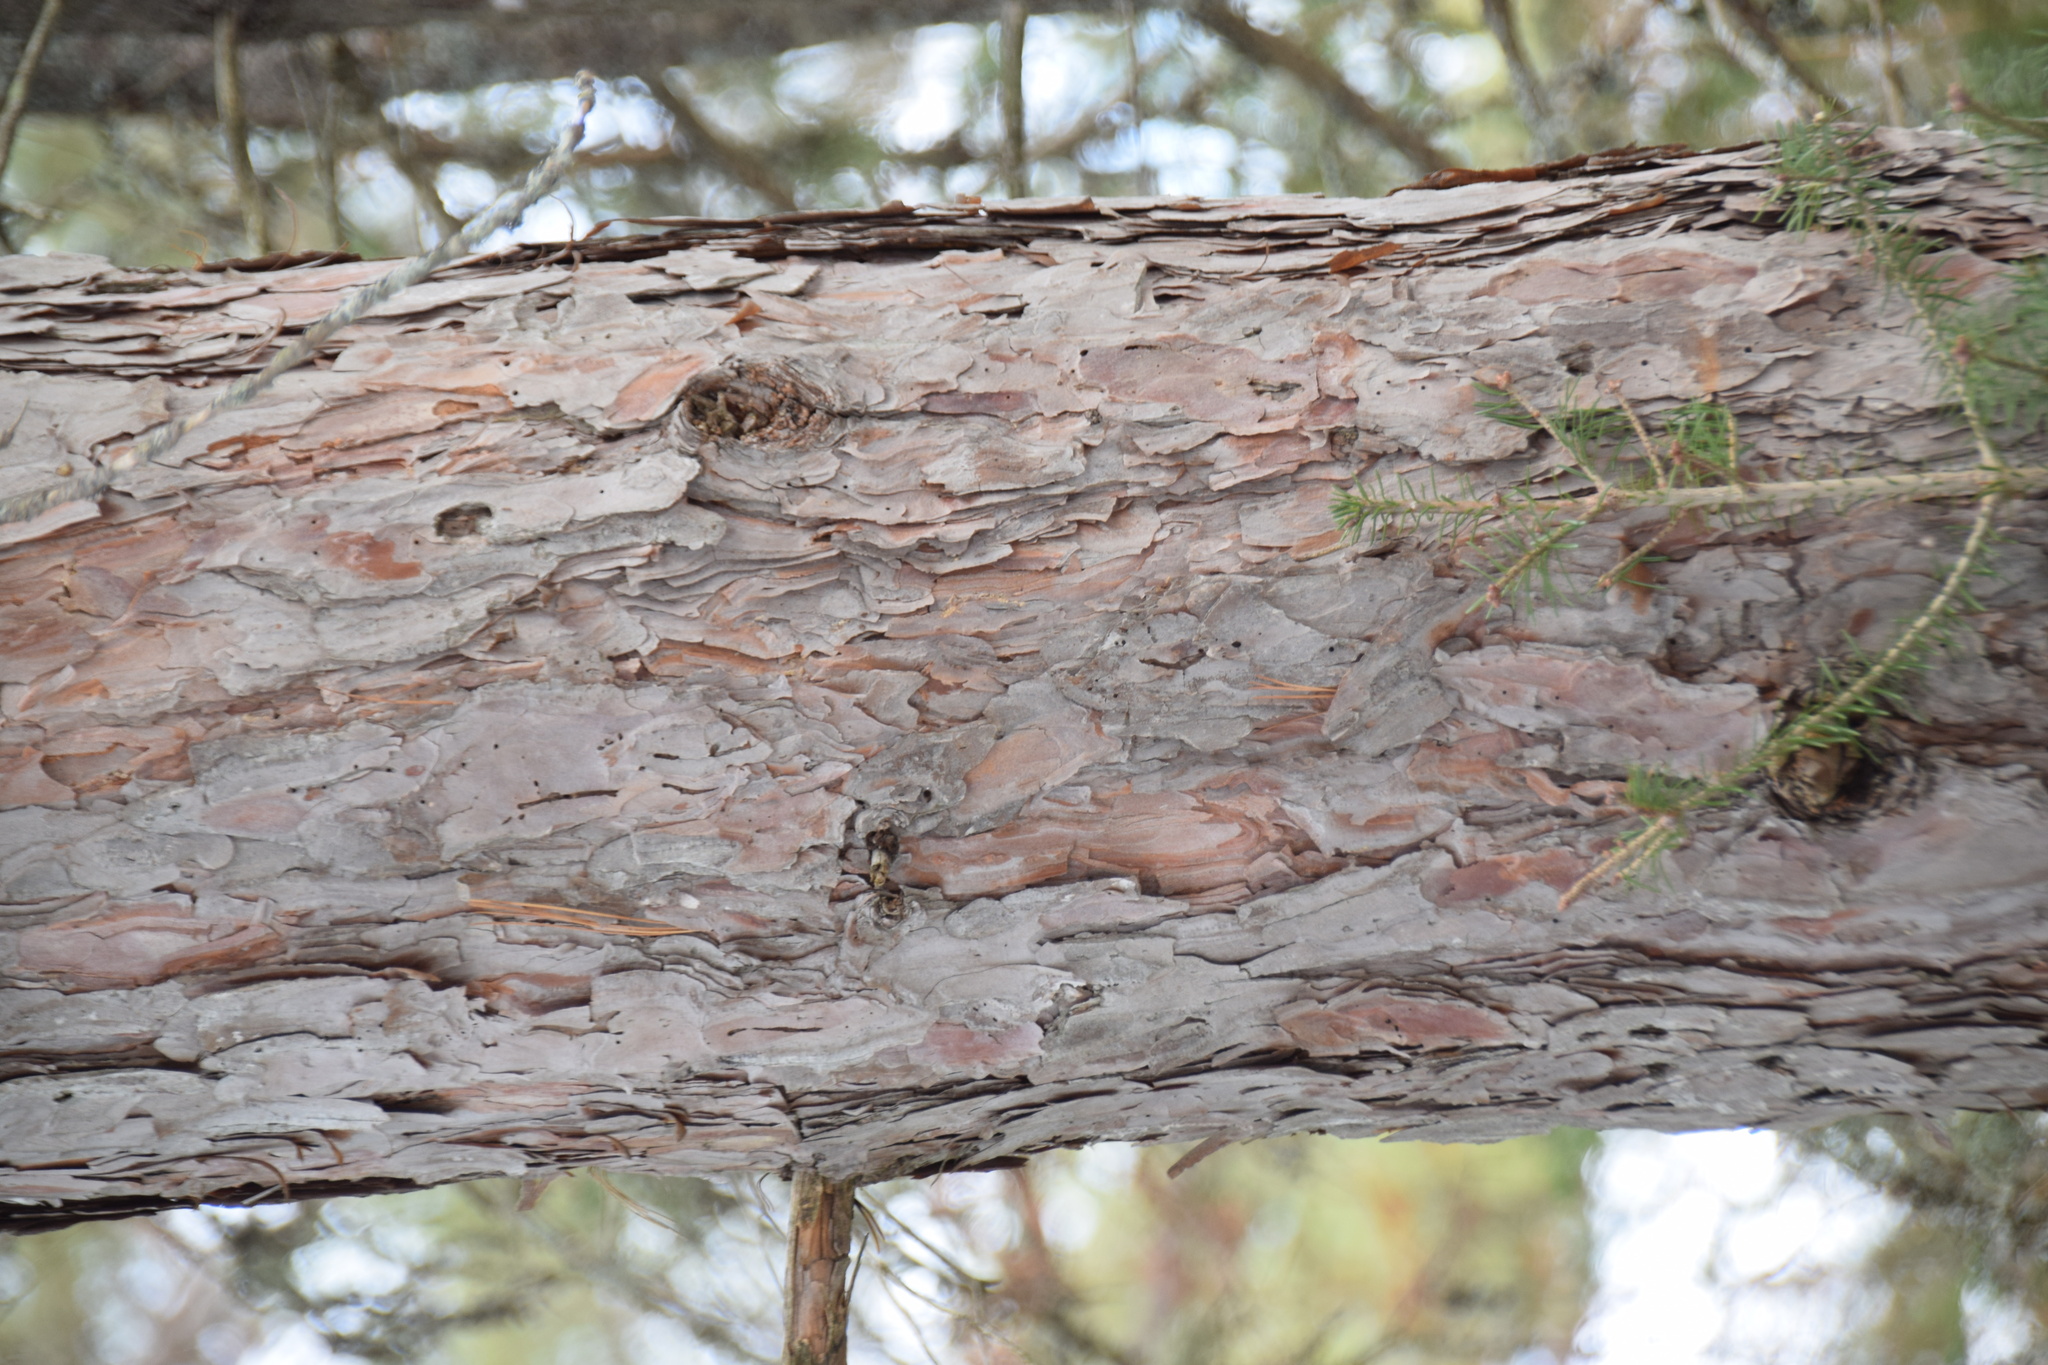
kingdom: Plantae
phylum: Tracheophyta
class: Pinopsida
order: Pinales
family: Pinaceae
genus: Pinus
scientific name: Pinus resinosa
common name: Norway pine
